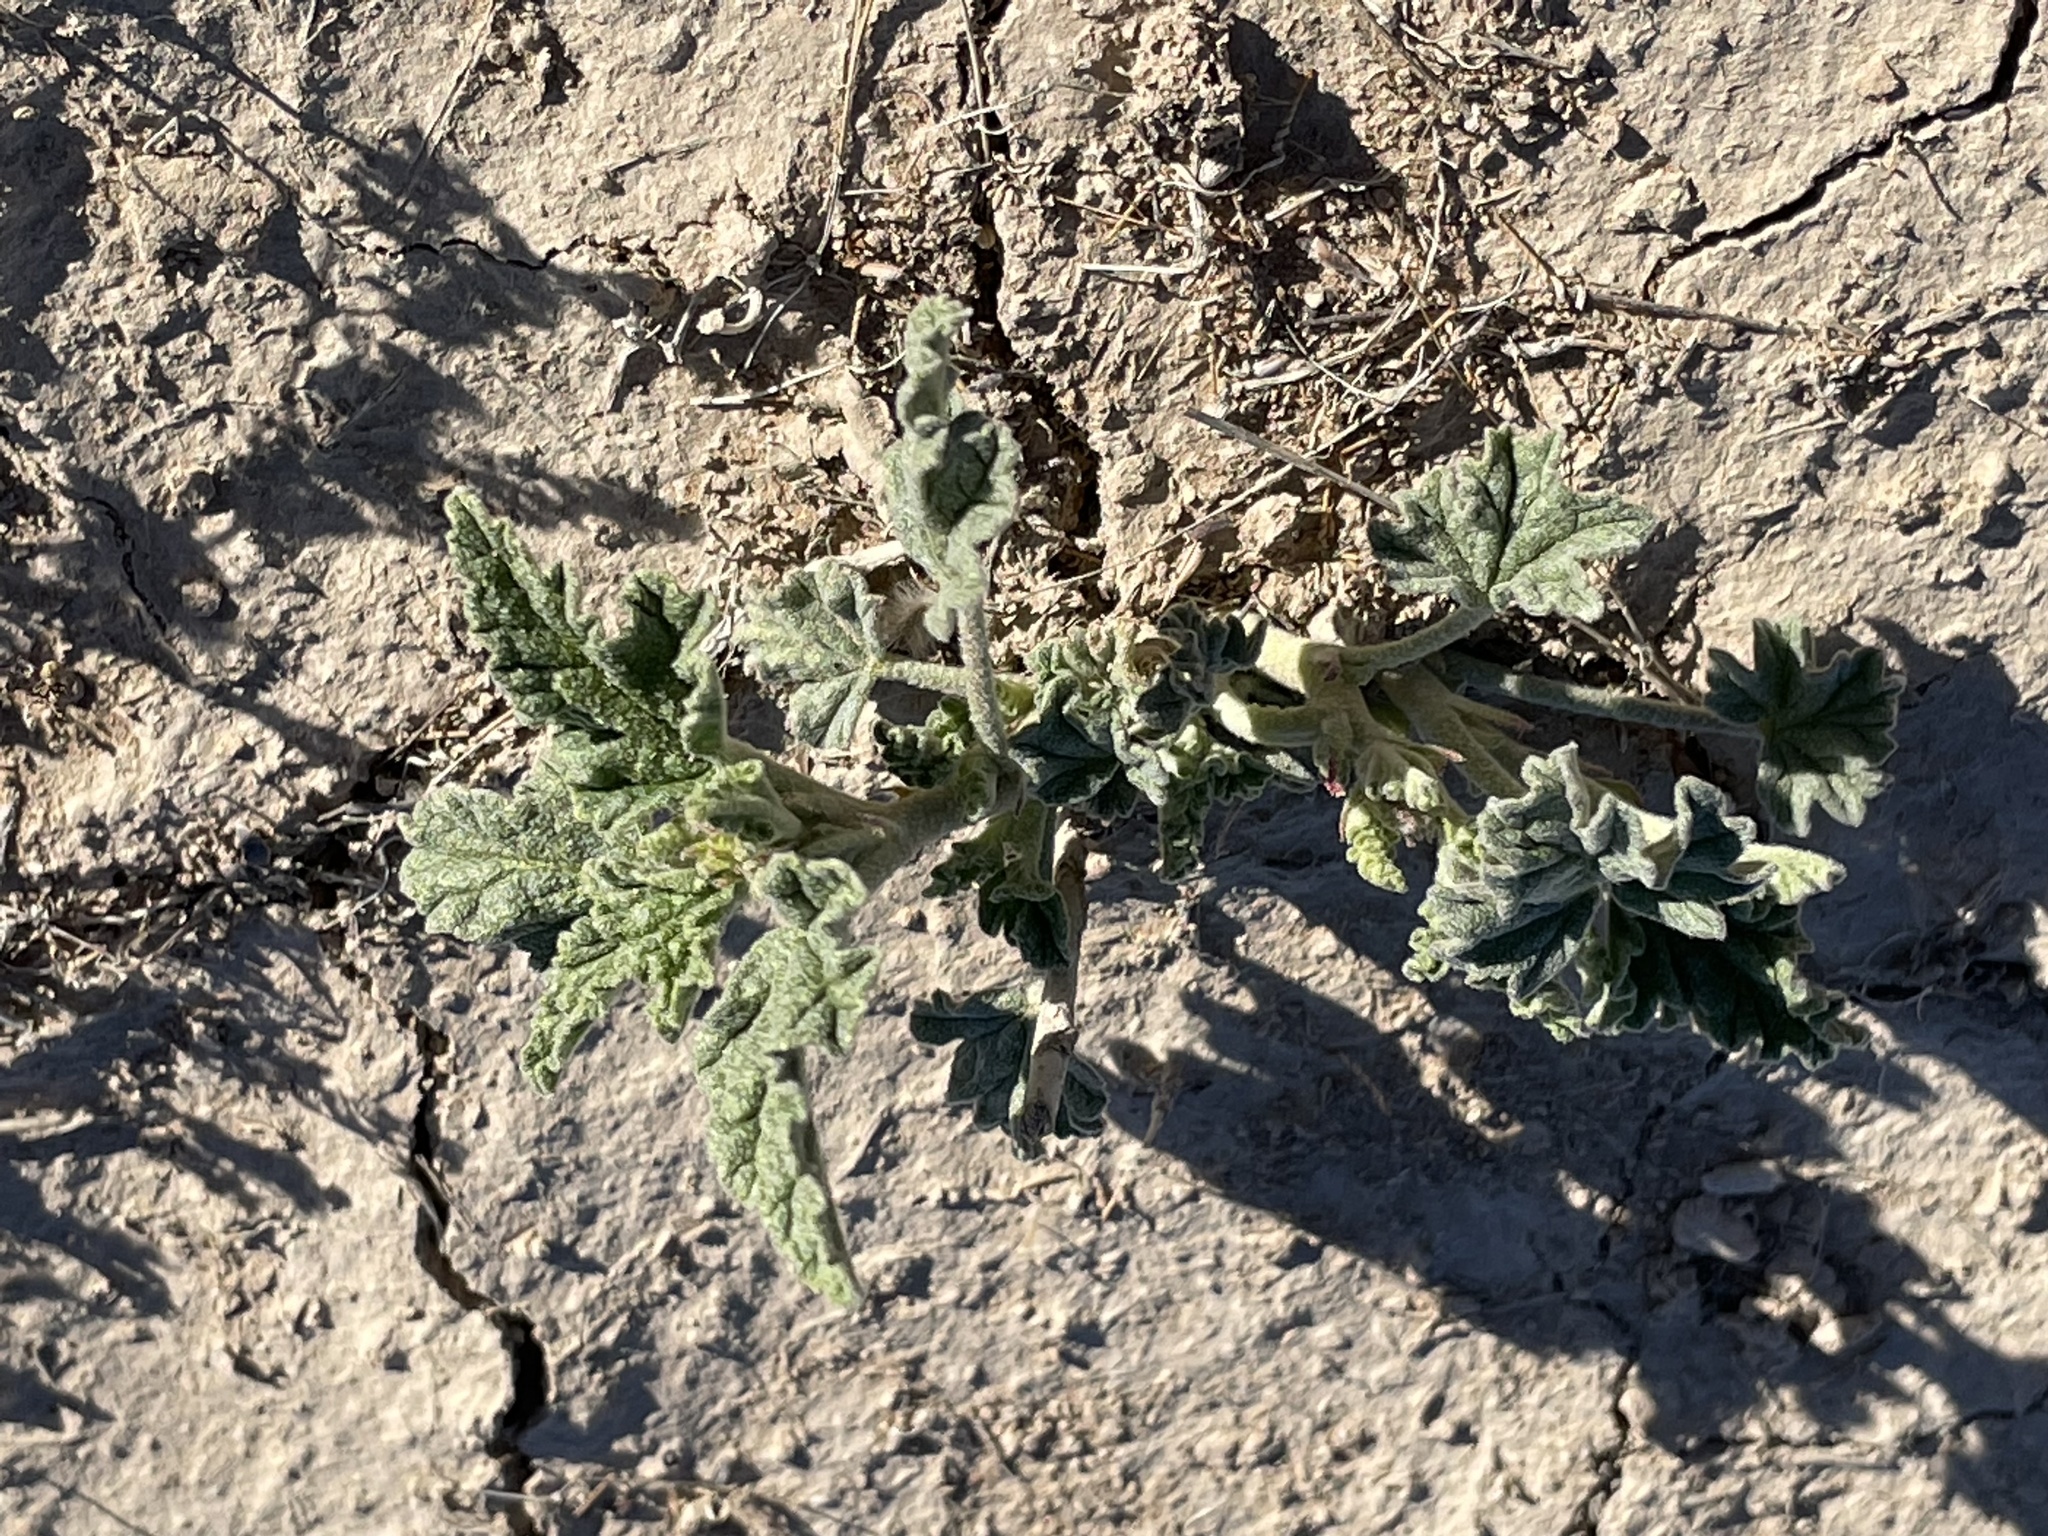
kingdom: Plantae
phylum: Tracheophyta
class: Magnoliopsida
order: Malvales
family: Malvaceae
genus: Sphaeralcea
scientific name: Sphaeralcea
